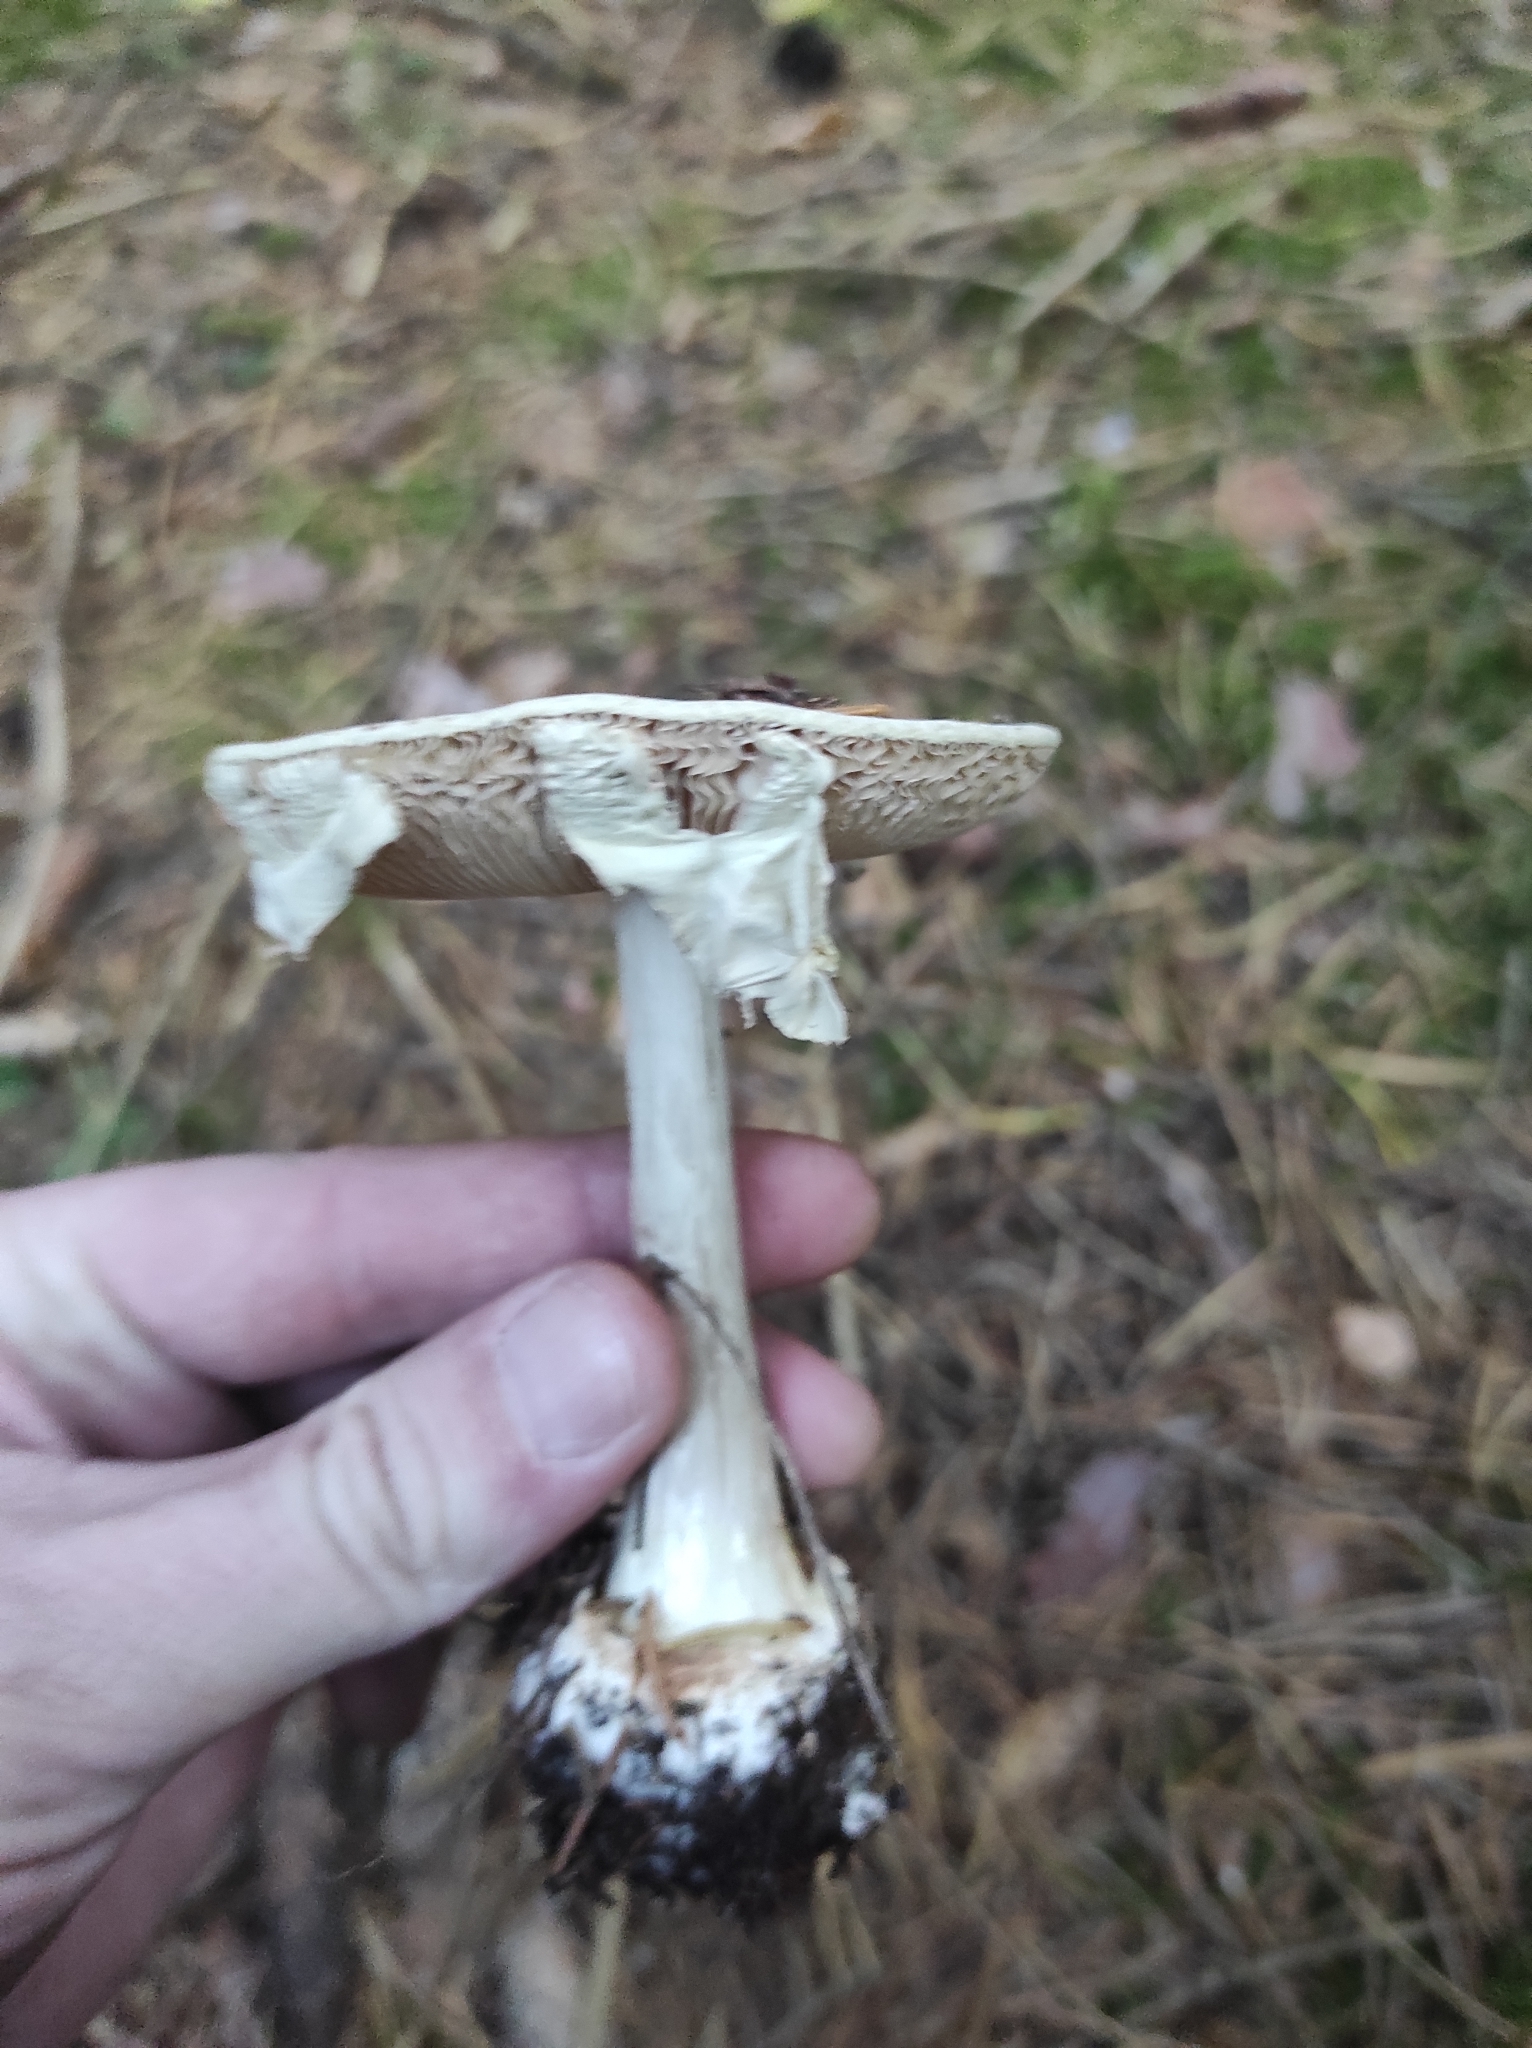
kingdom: Fungi
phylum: Basidiomycota
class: Agaricomycetes
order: Agaricales
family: Amanitaceae
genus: Amanita
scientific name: Amanita citrina
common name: False death-cap
